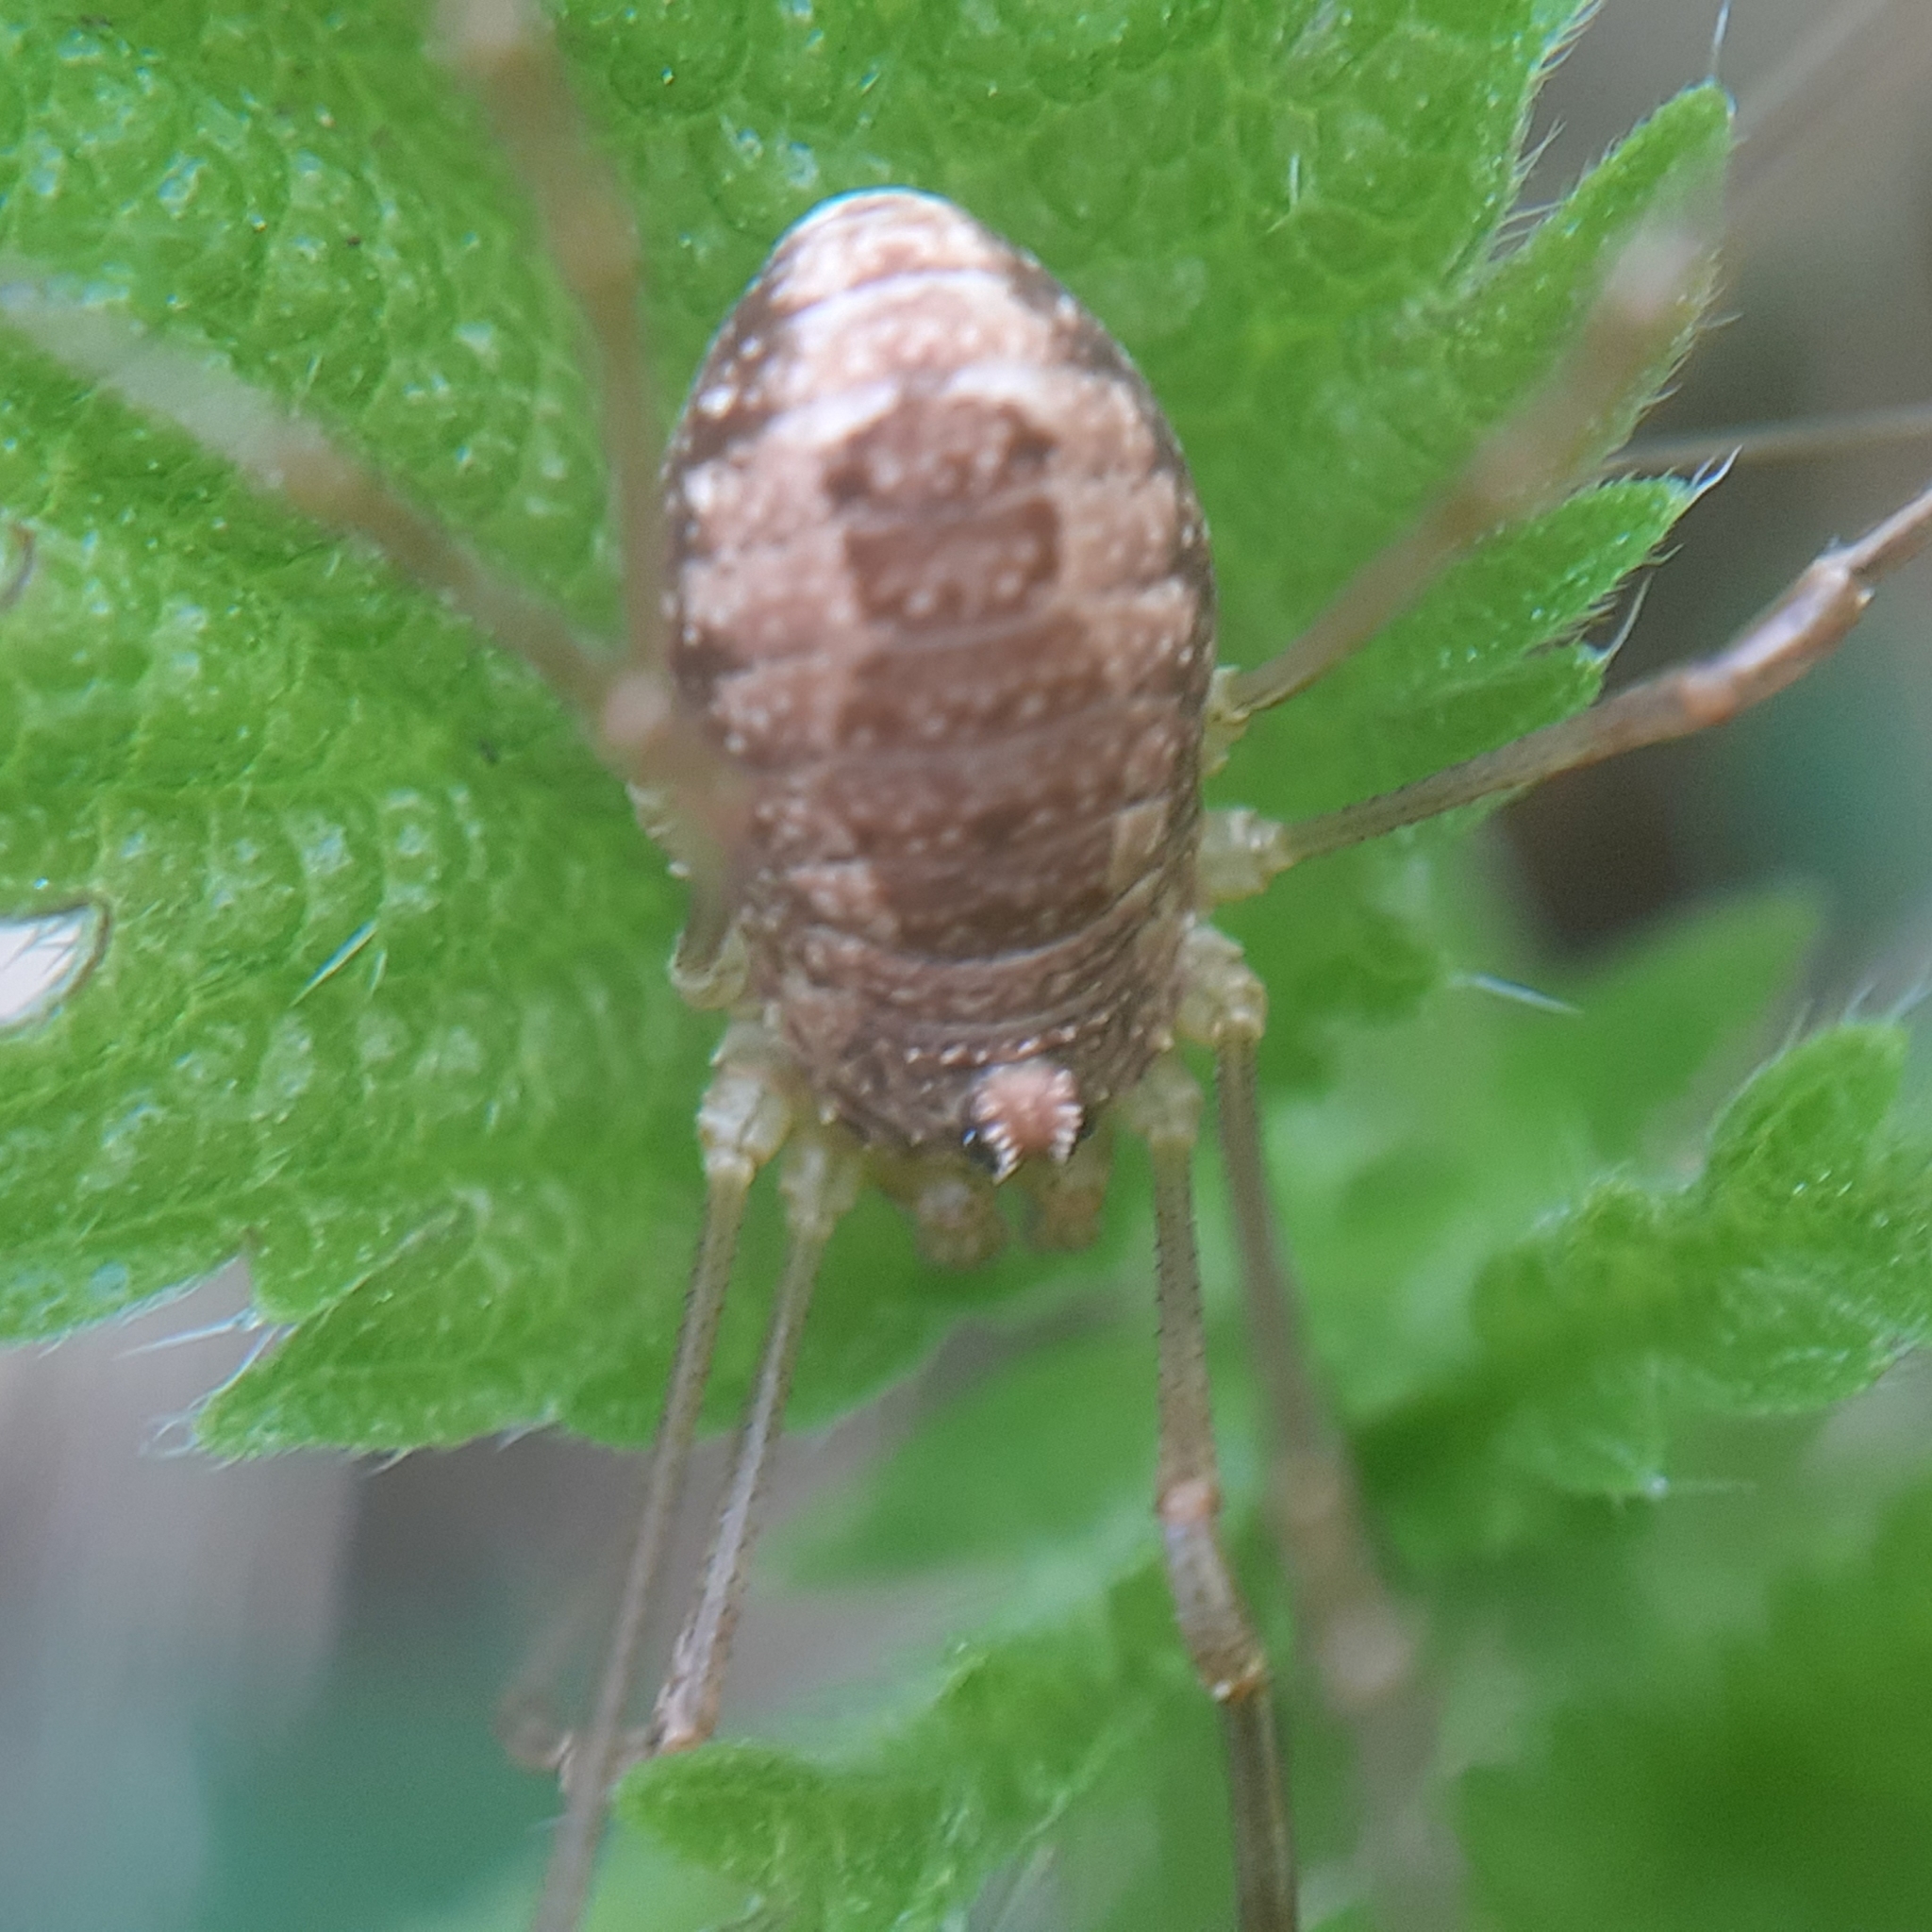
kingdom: Animalia
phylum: Arthropoda
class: Arachnida
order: Opiliones
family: Phalangiidae
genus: Rilaena
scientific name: Rilaena triangularis
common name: Spring harvestman
